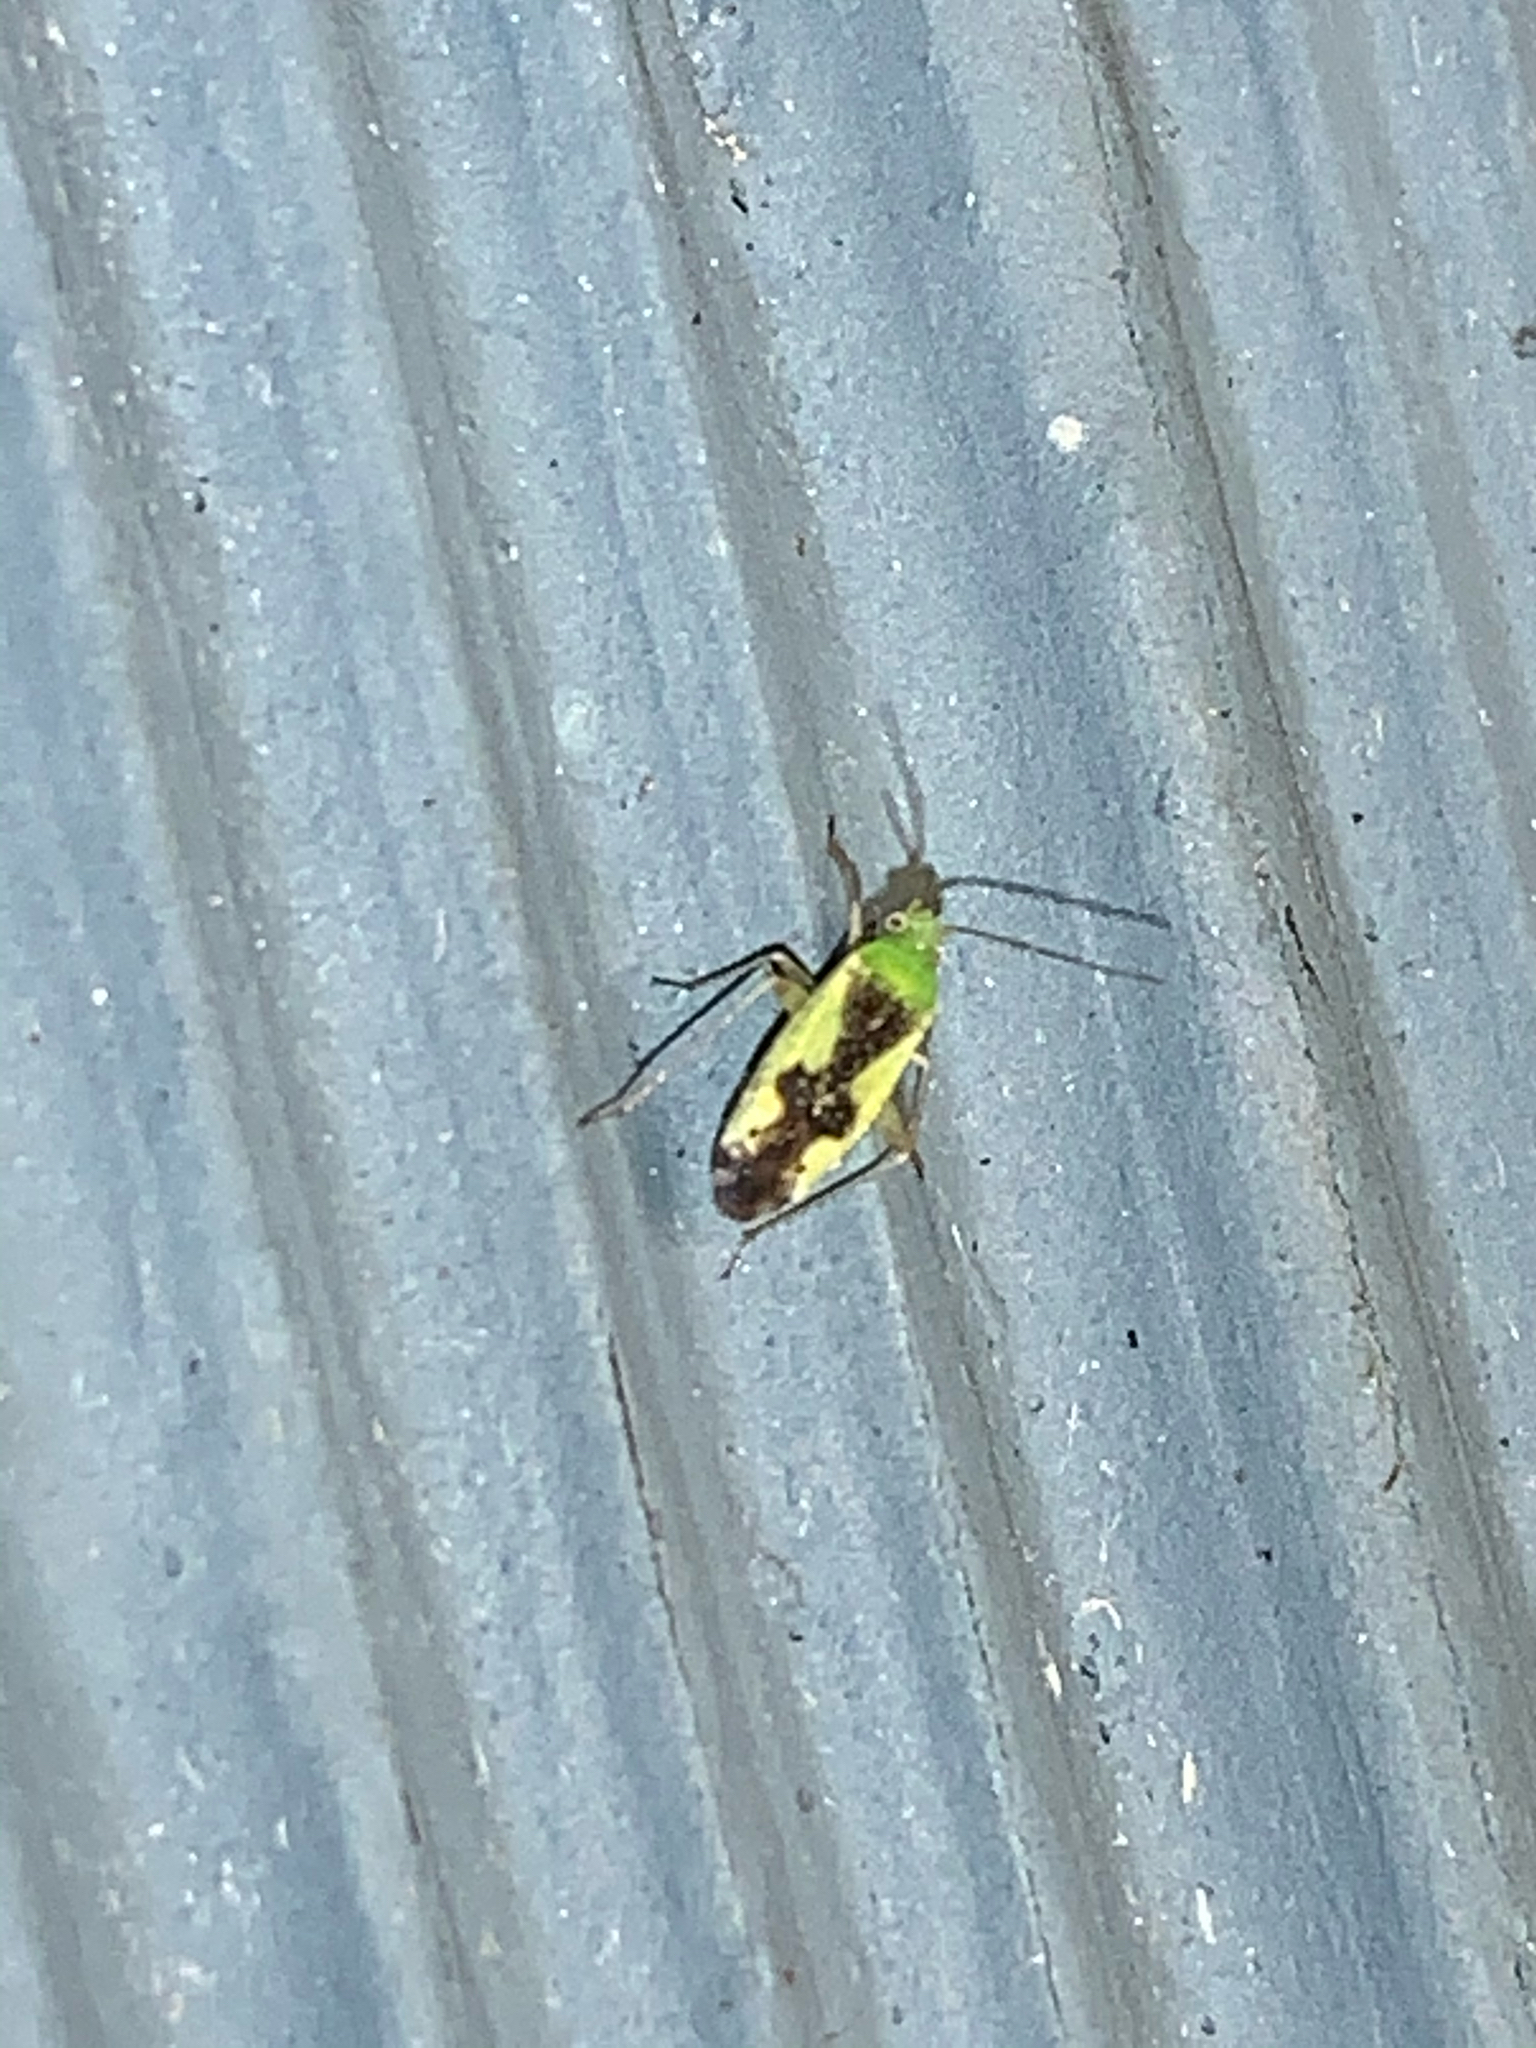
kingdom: Animalia
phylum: Arthropoda
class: Insecta
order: Hemiptera
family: Miridae
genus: Reuteroscopus
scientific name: Reuteroscopus ornatus
